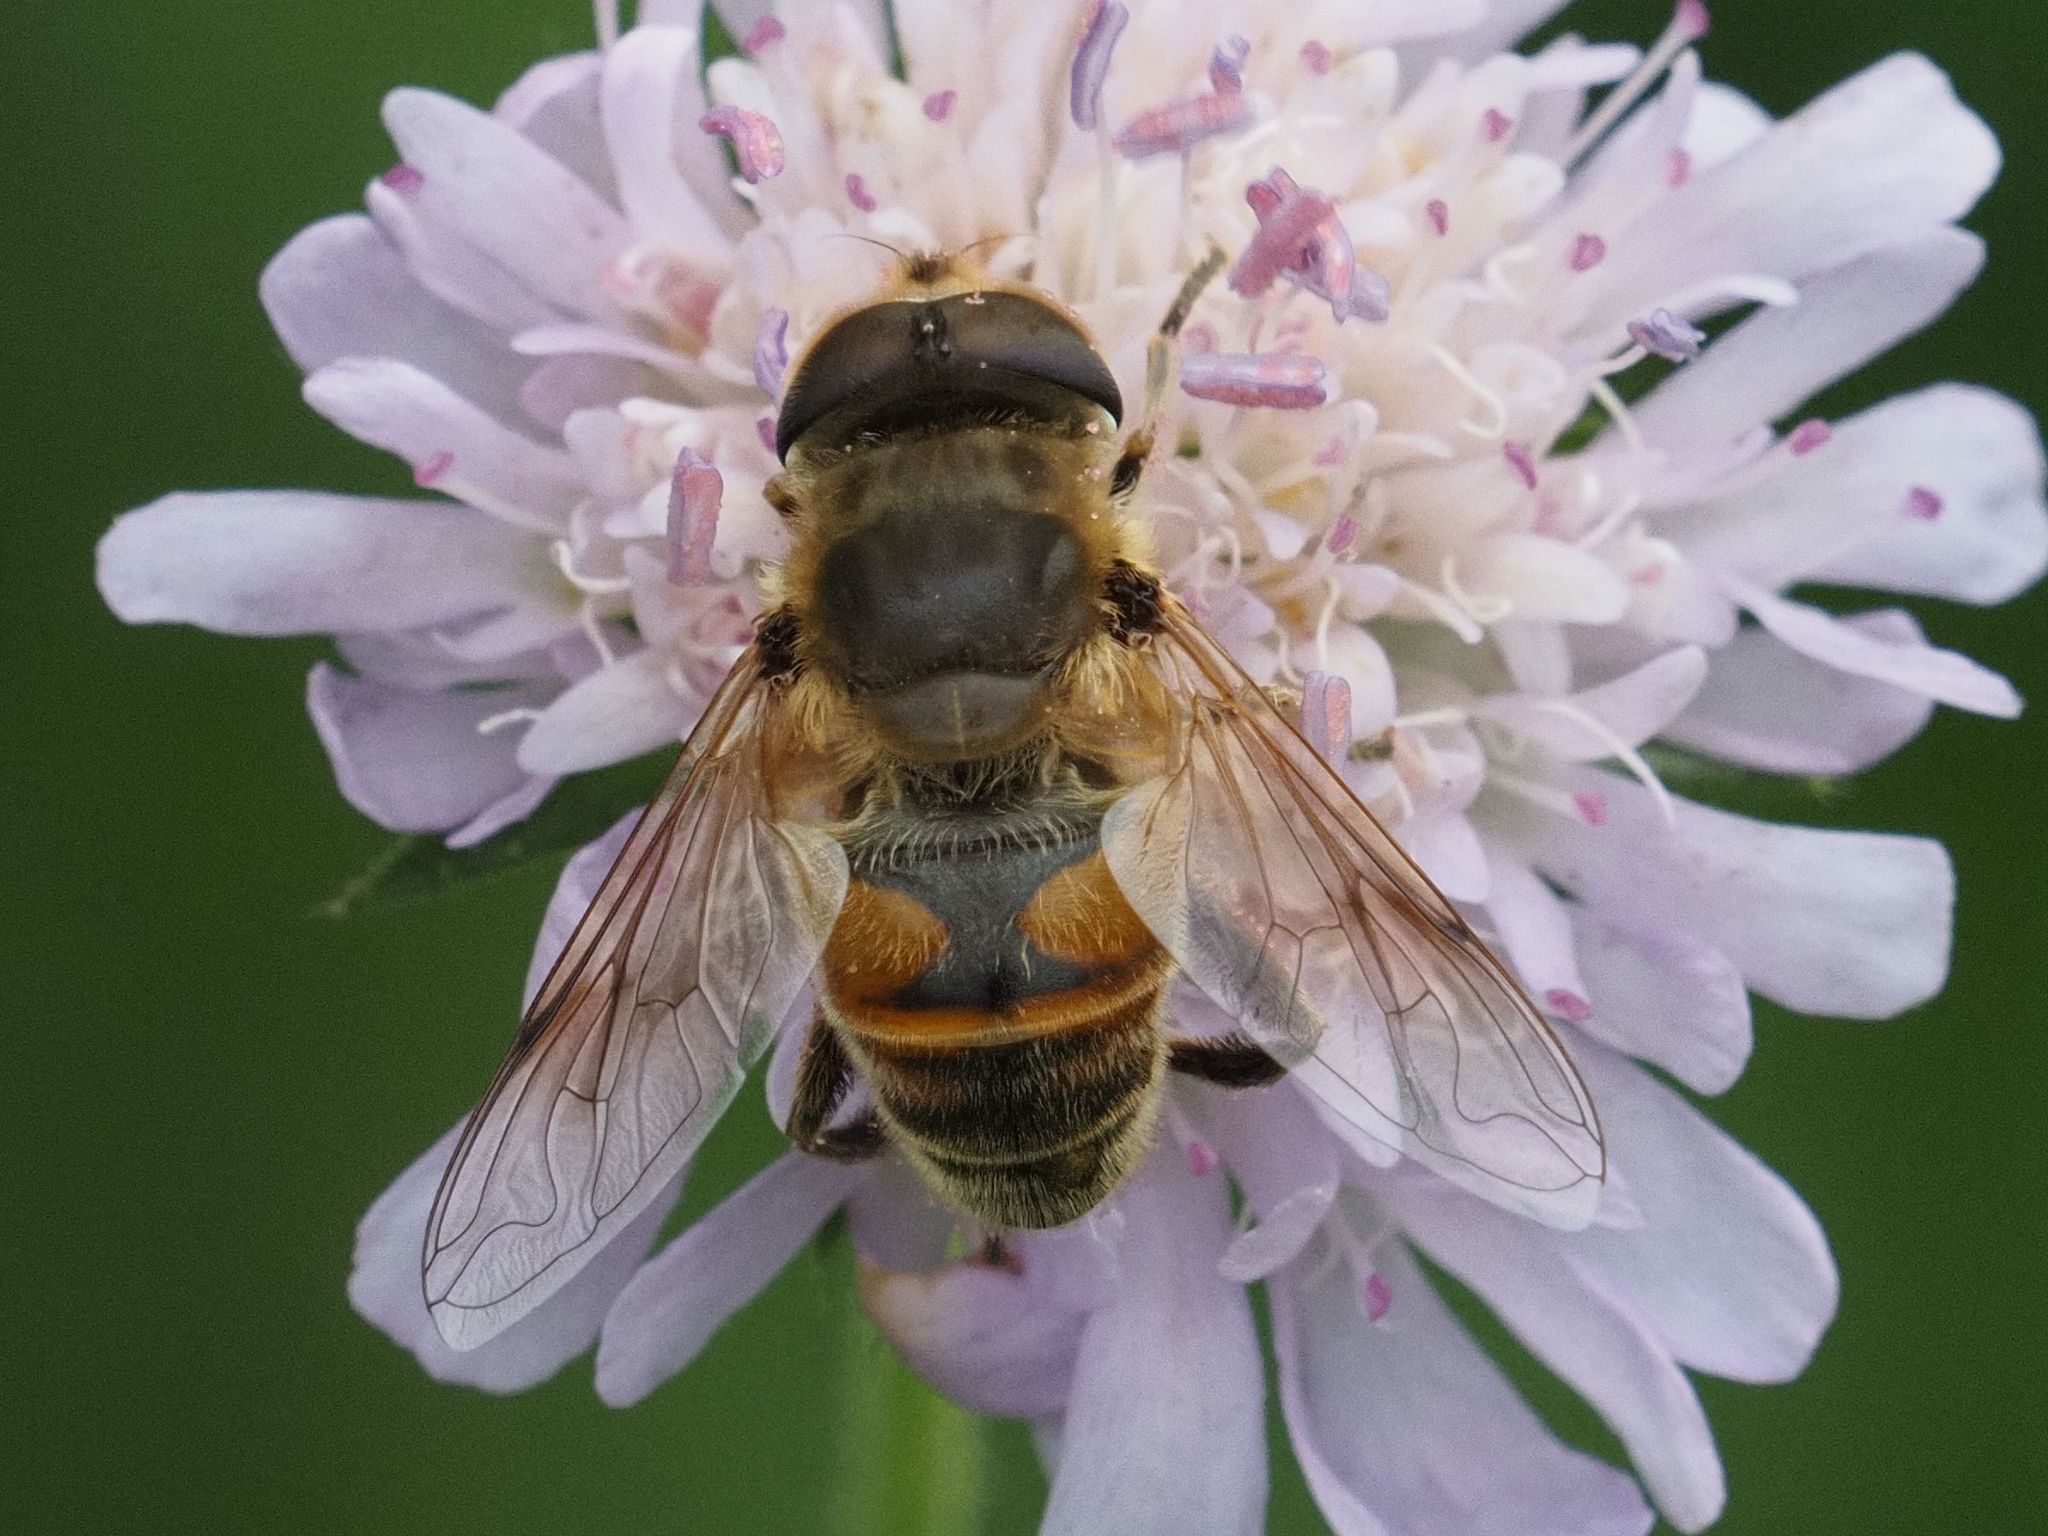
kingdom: Animalia
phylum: Arthropoda
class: Insecta
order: Diptera
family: Syrphidae
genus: Eristalis
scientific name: Eristalis tenax
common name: Drone fly
